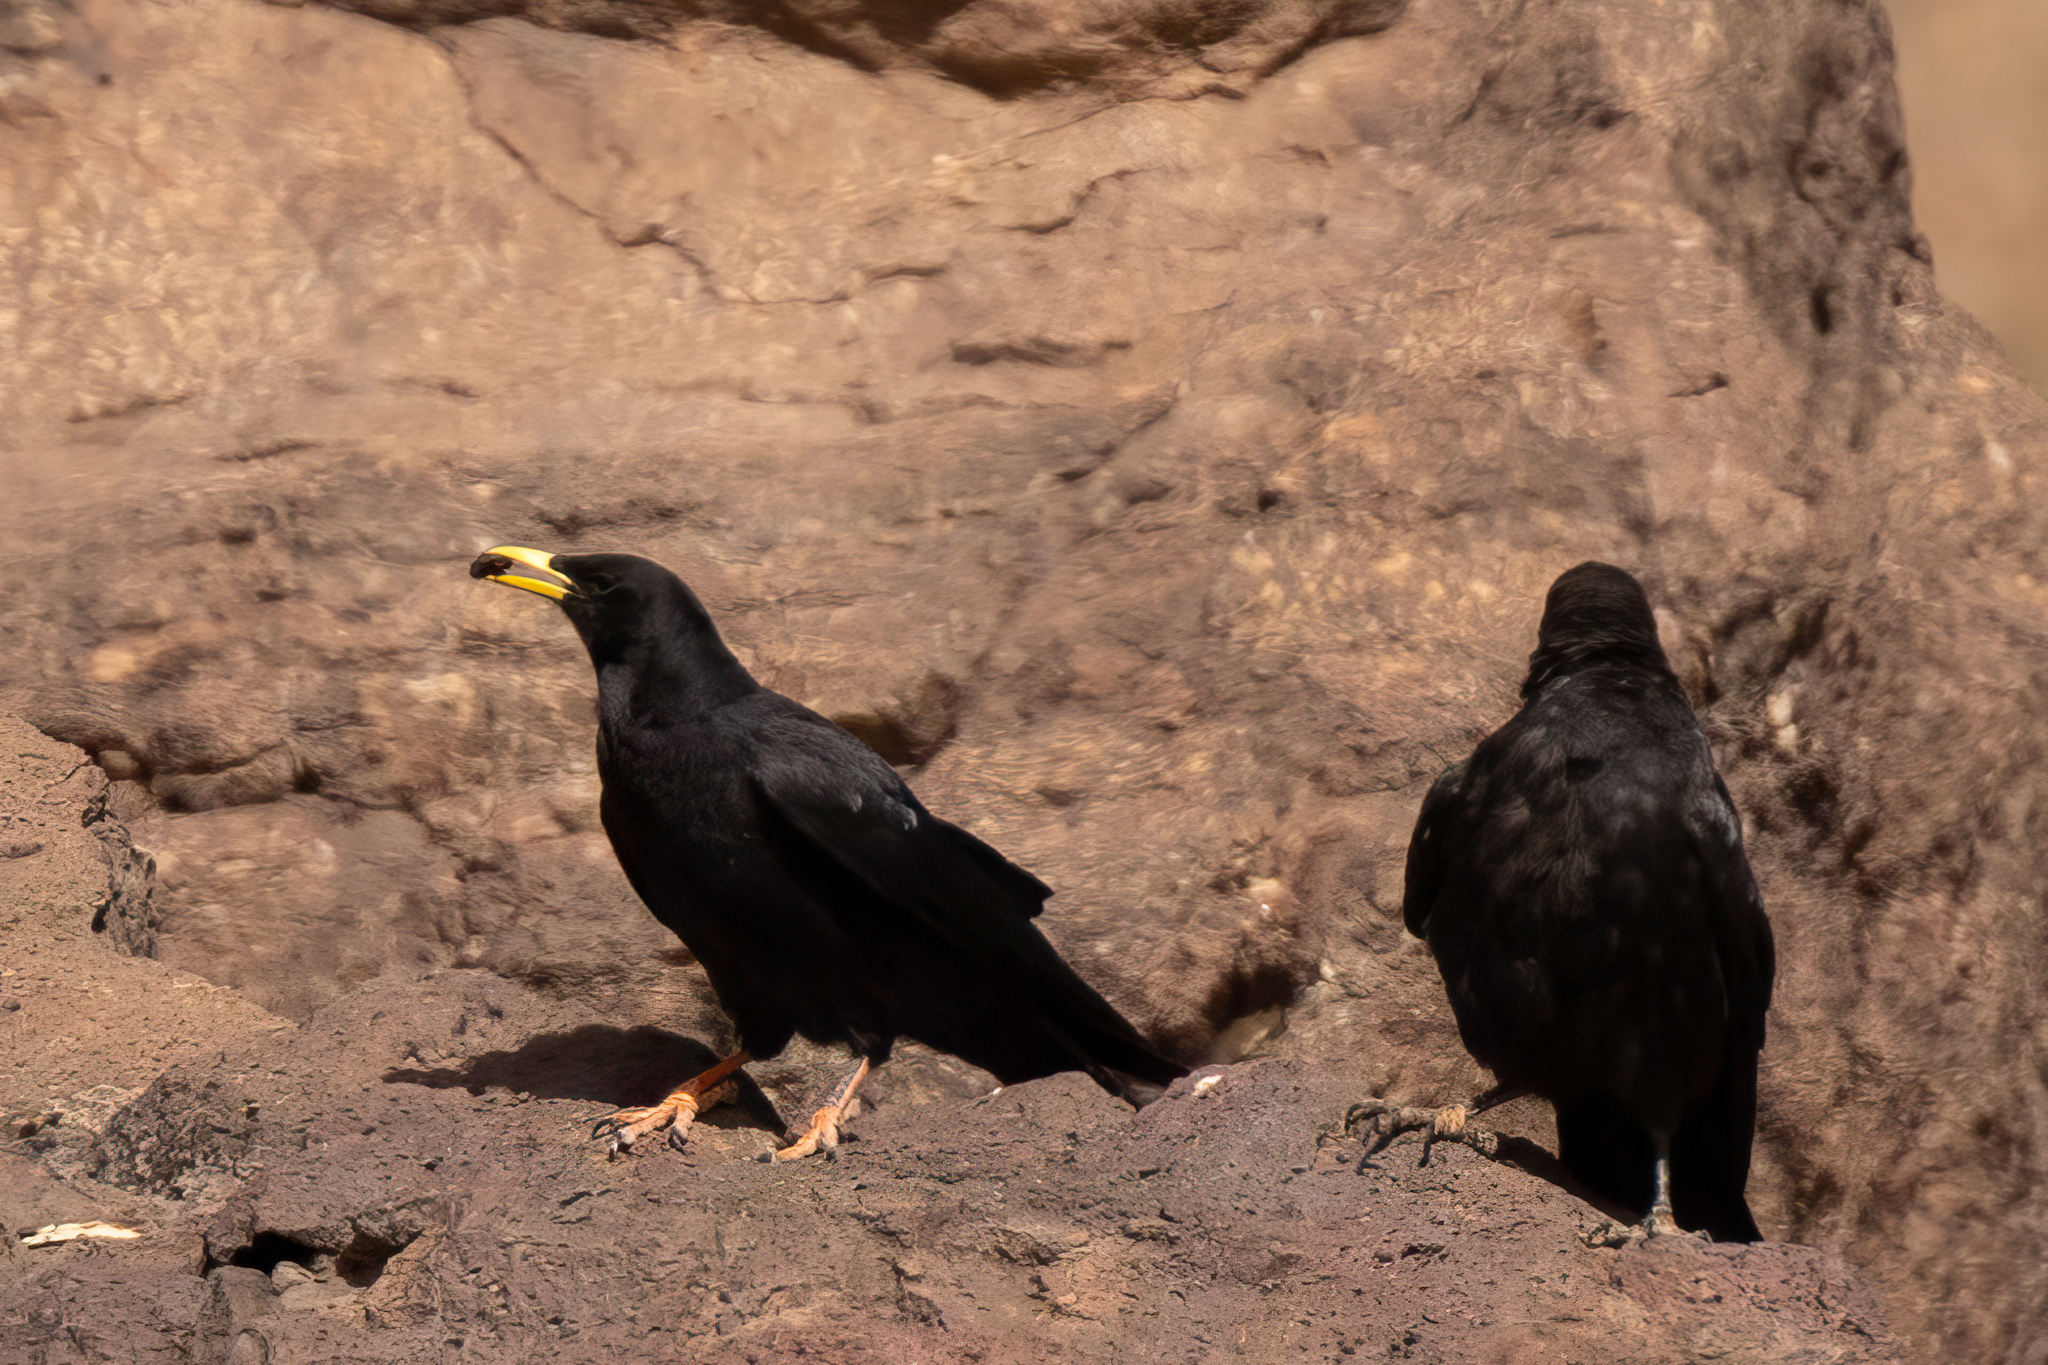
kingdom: Animalia
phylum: Chordata
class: Aves
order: Passeriformes
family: Corvidae
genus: Pyrrhocorax
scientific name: Pyrrhocorax graculus
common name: Alpine chough
